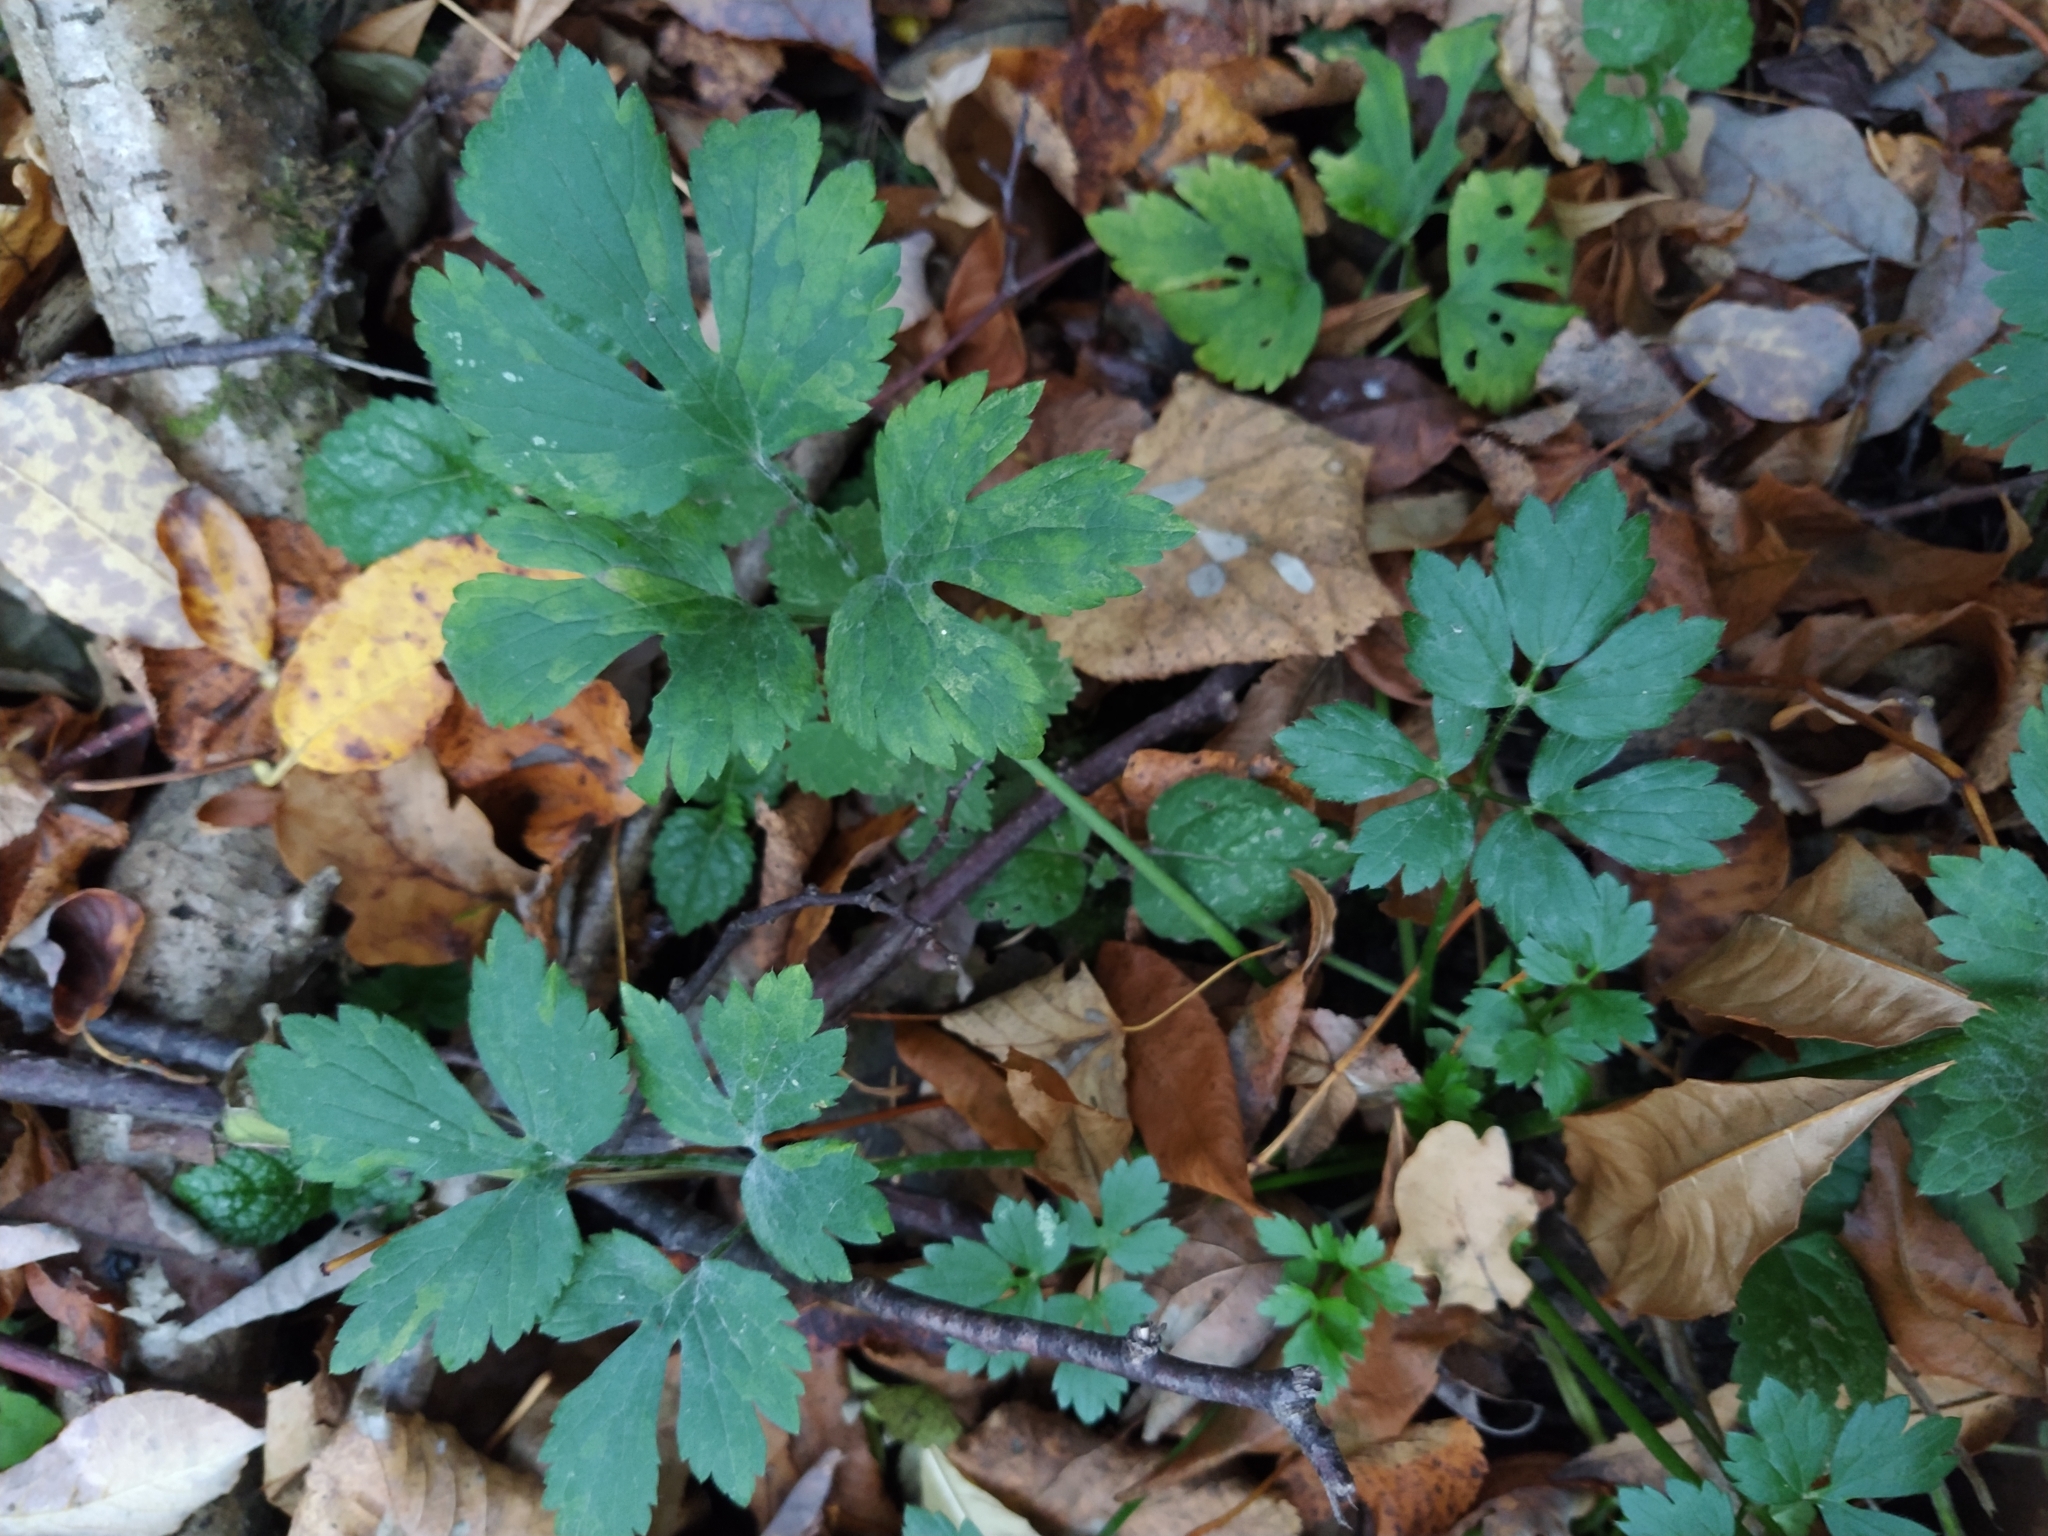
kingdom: Plantae
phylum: Tracheophyta
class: Magnoliopsida
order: Ranunculales
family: Ranunculaceae
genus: Ranunculus
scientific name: Ranunculus repens
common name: Creeping buttercup
